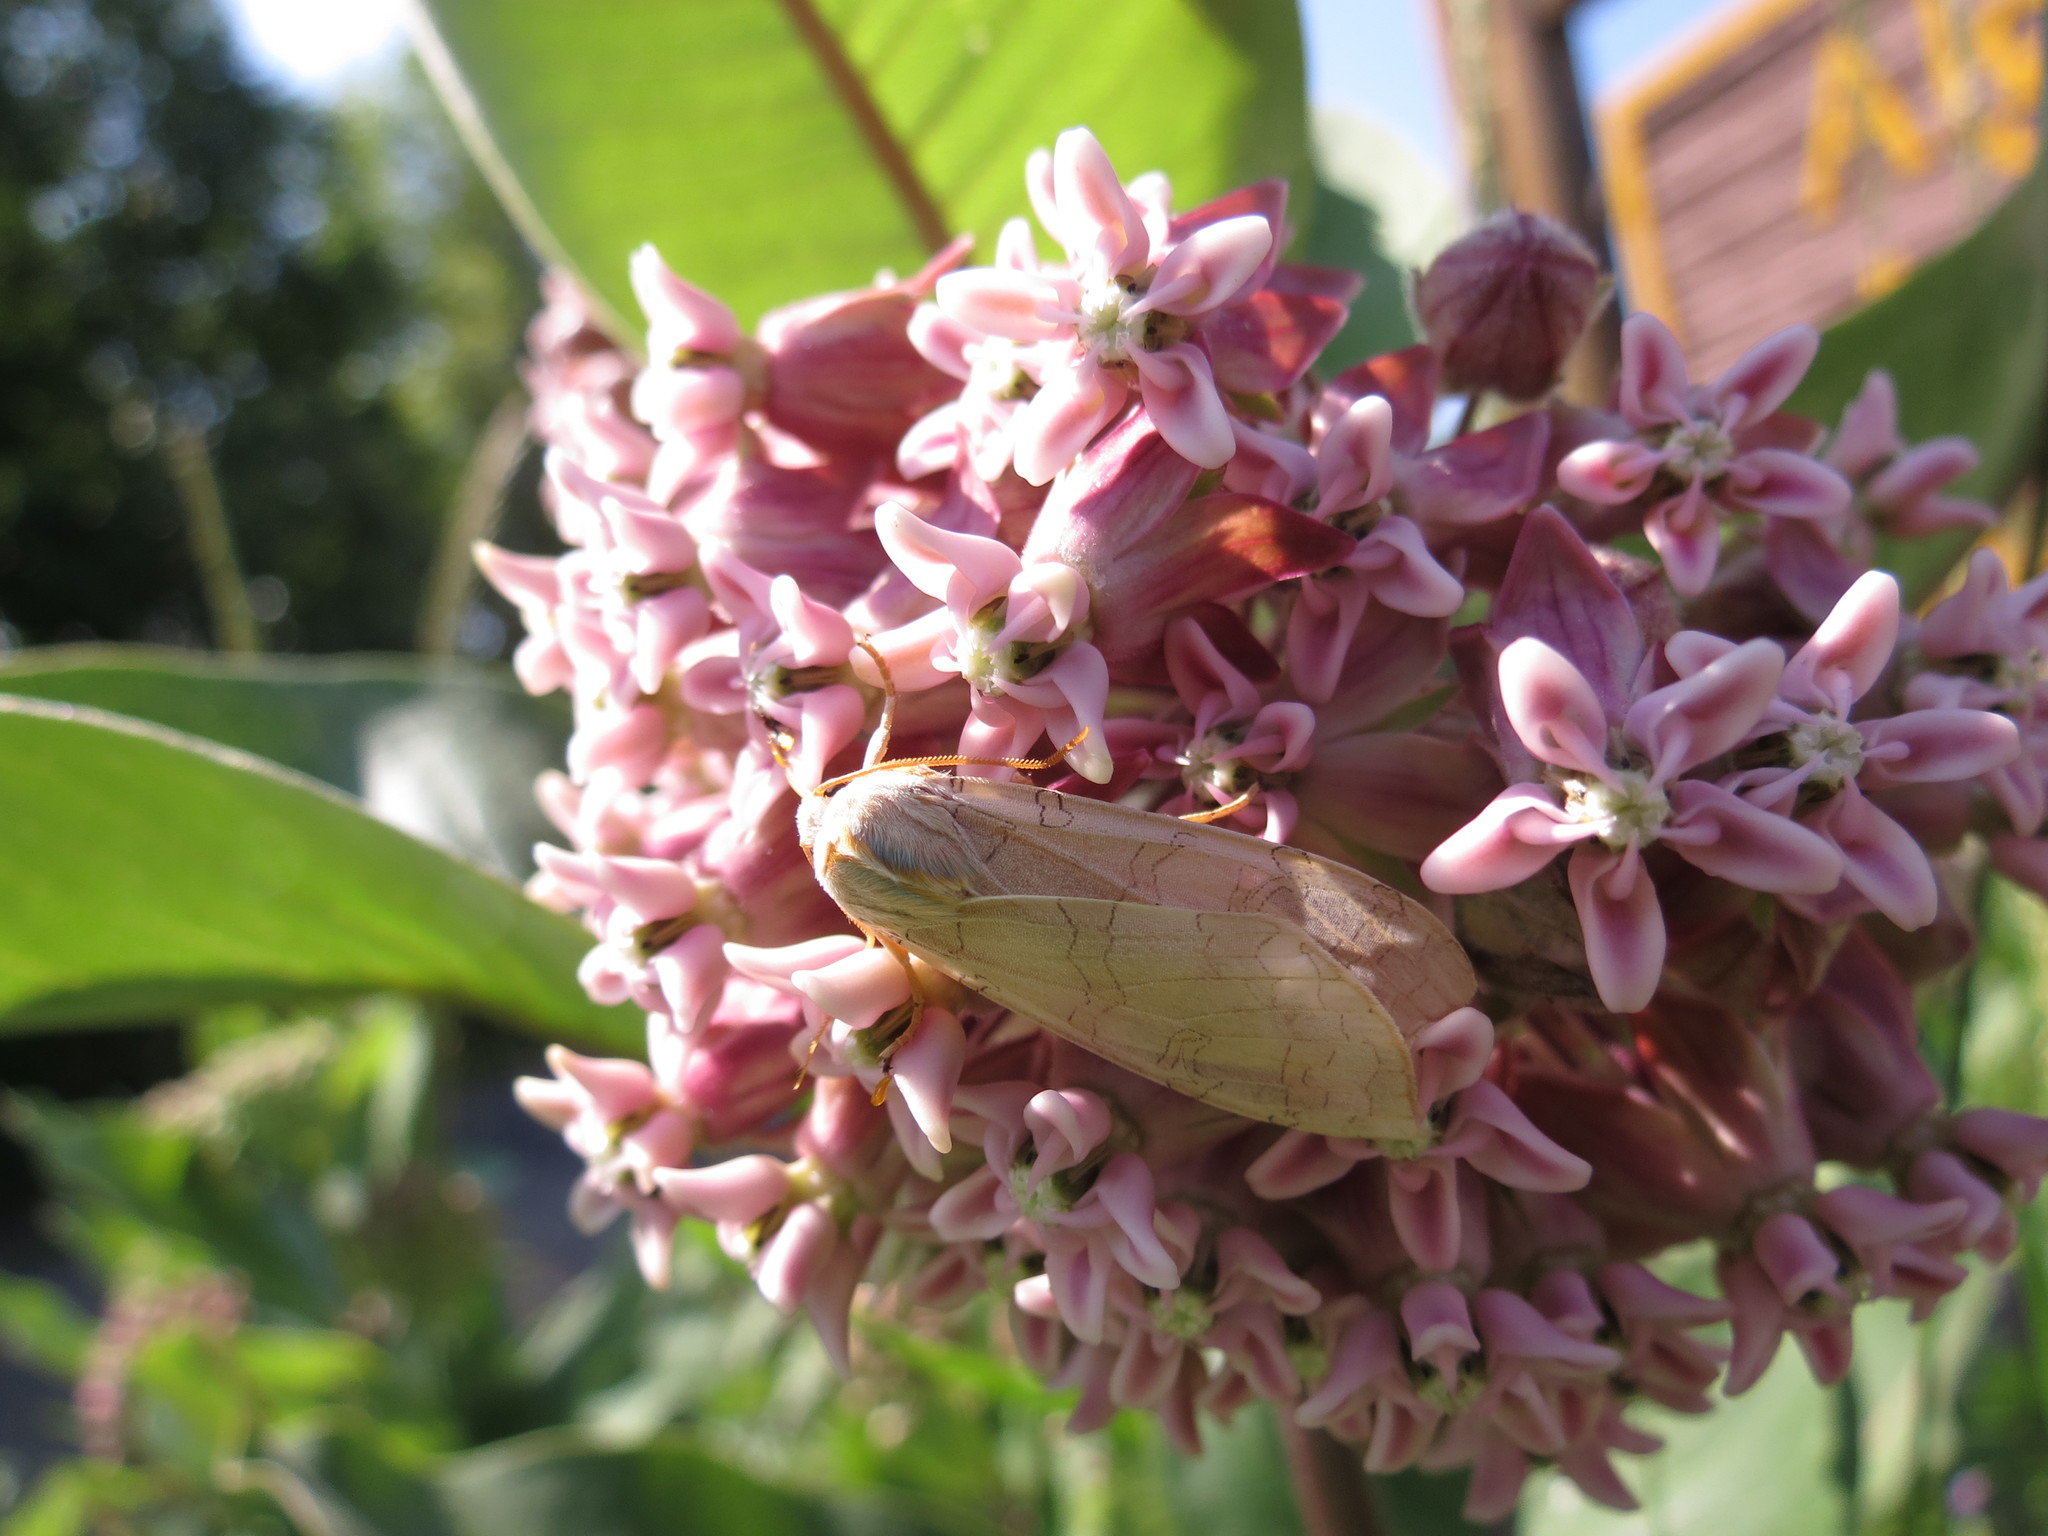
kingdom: Animalia
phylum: Arthropoda
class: Insecta
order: Lepidoptera
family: Erebidae
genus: Halysidota
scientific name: Halysidota tessellaris
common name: Banded tussock moth
